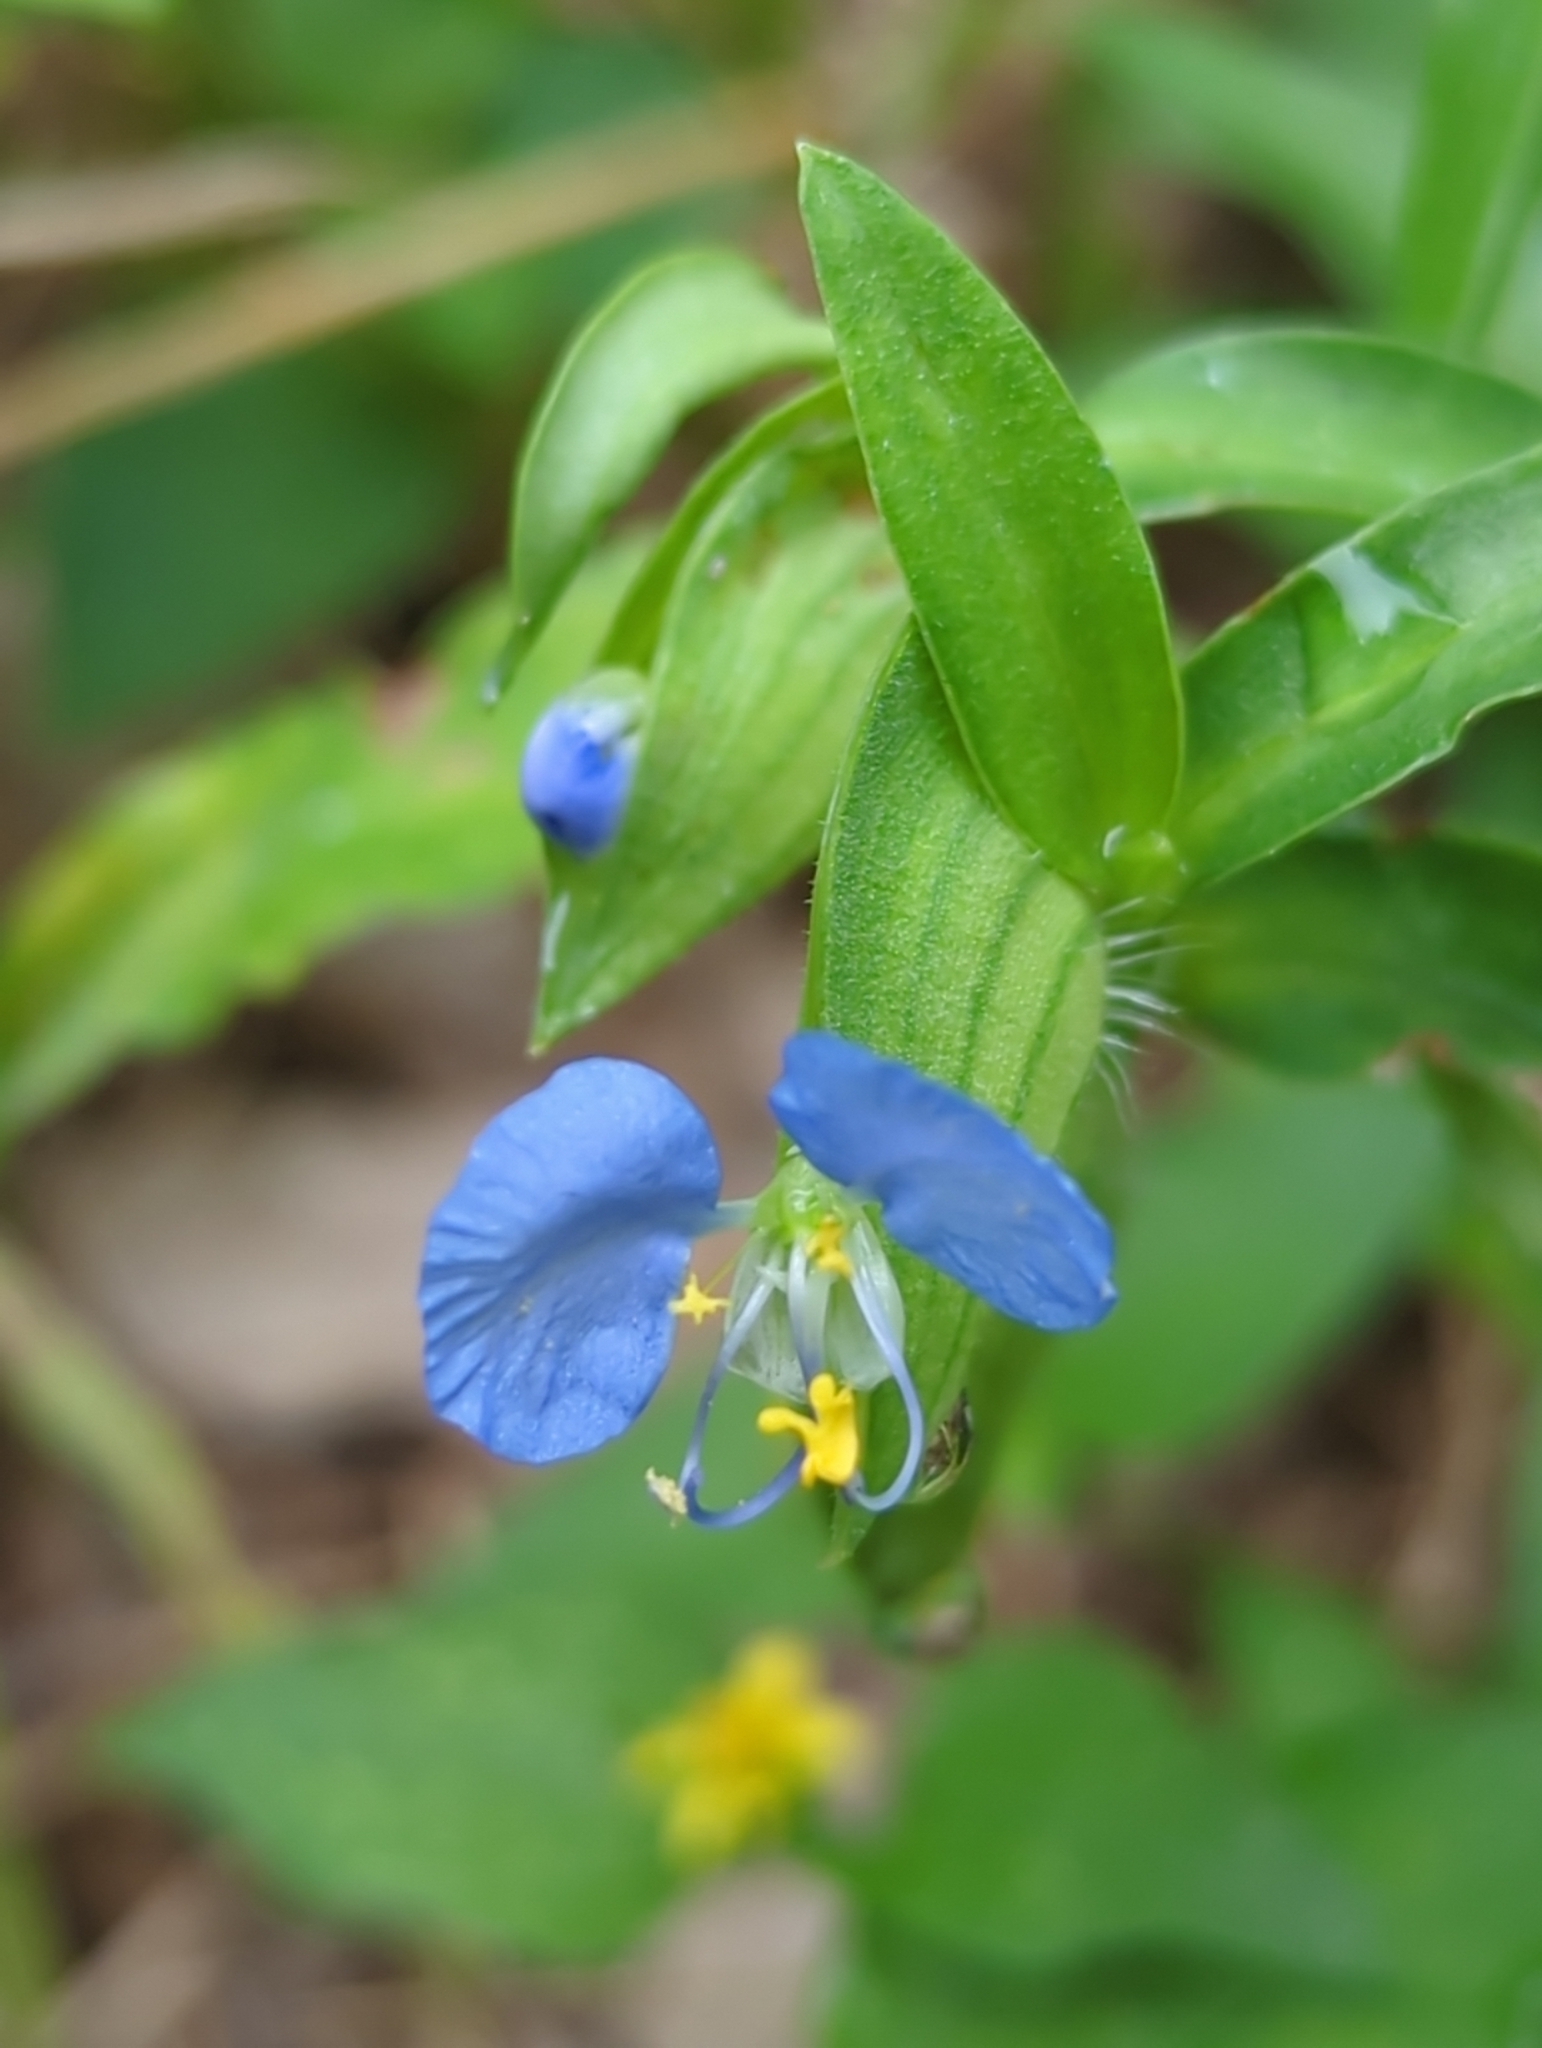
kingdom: Plantae
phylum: Tracheophyta
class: Liliopsida
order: Commelinales
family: Commelinaceae
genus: Commelina
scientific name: Commelina erecta
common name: Blousel blommetjie
